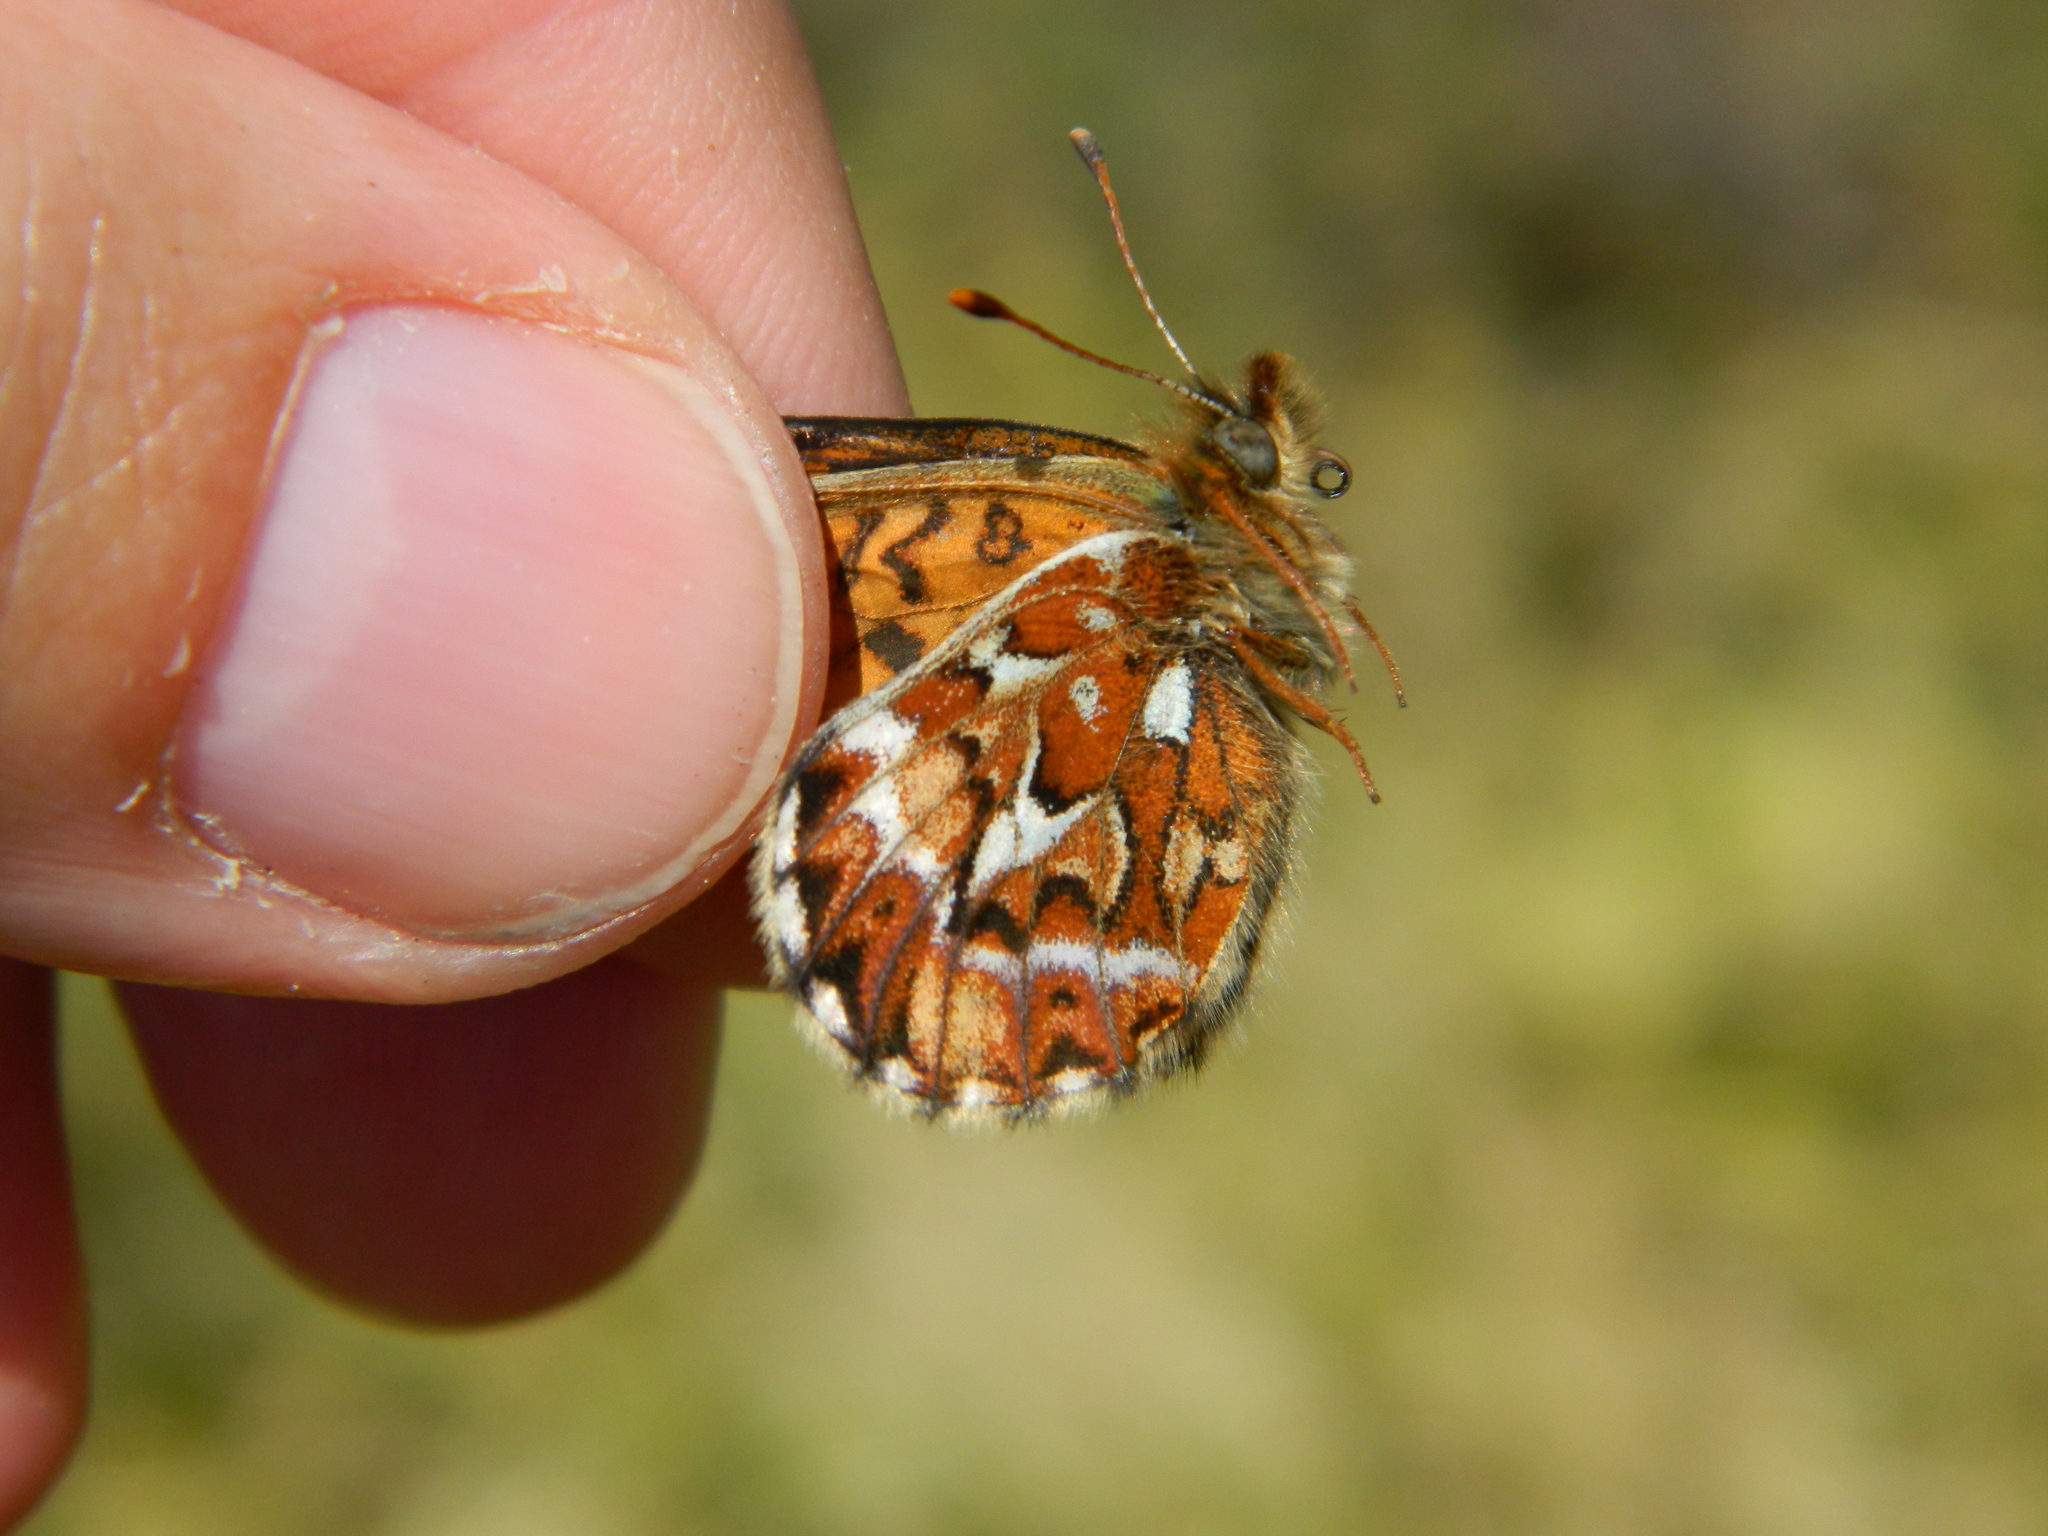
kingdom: Animalia
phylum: Arthropoda
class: Insecta
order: Lepidoptera
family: Nymphalidae
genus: Boloria
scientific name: Boloria freija
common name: Freija fritillary
